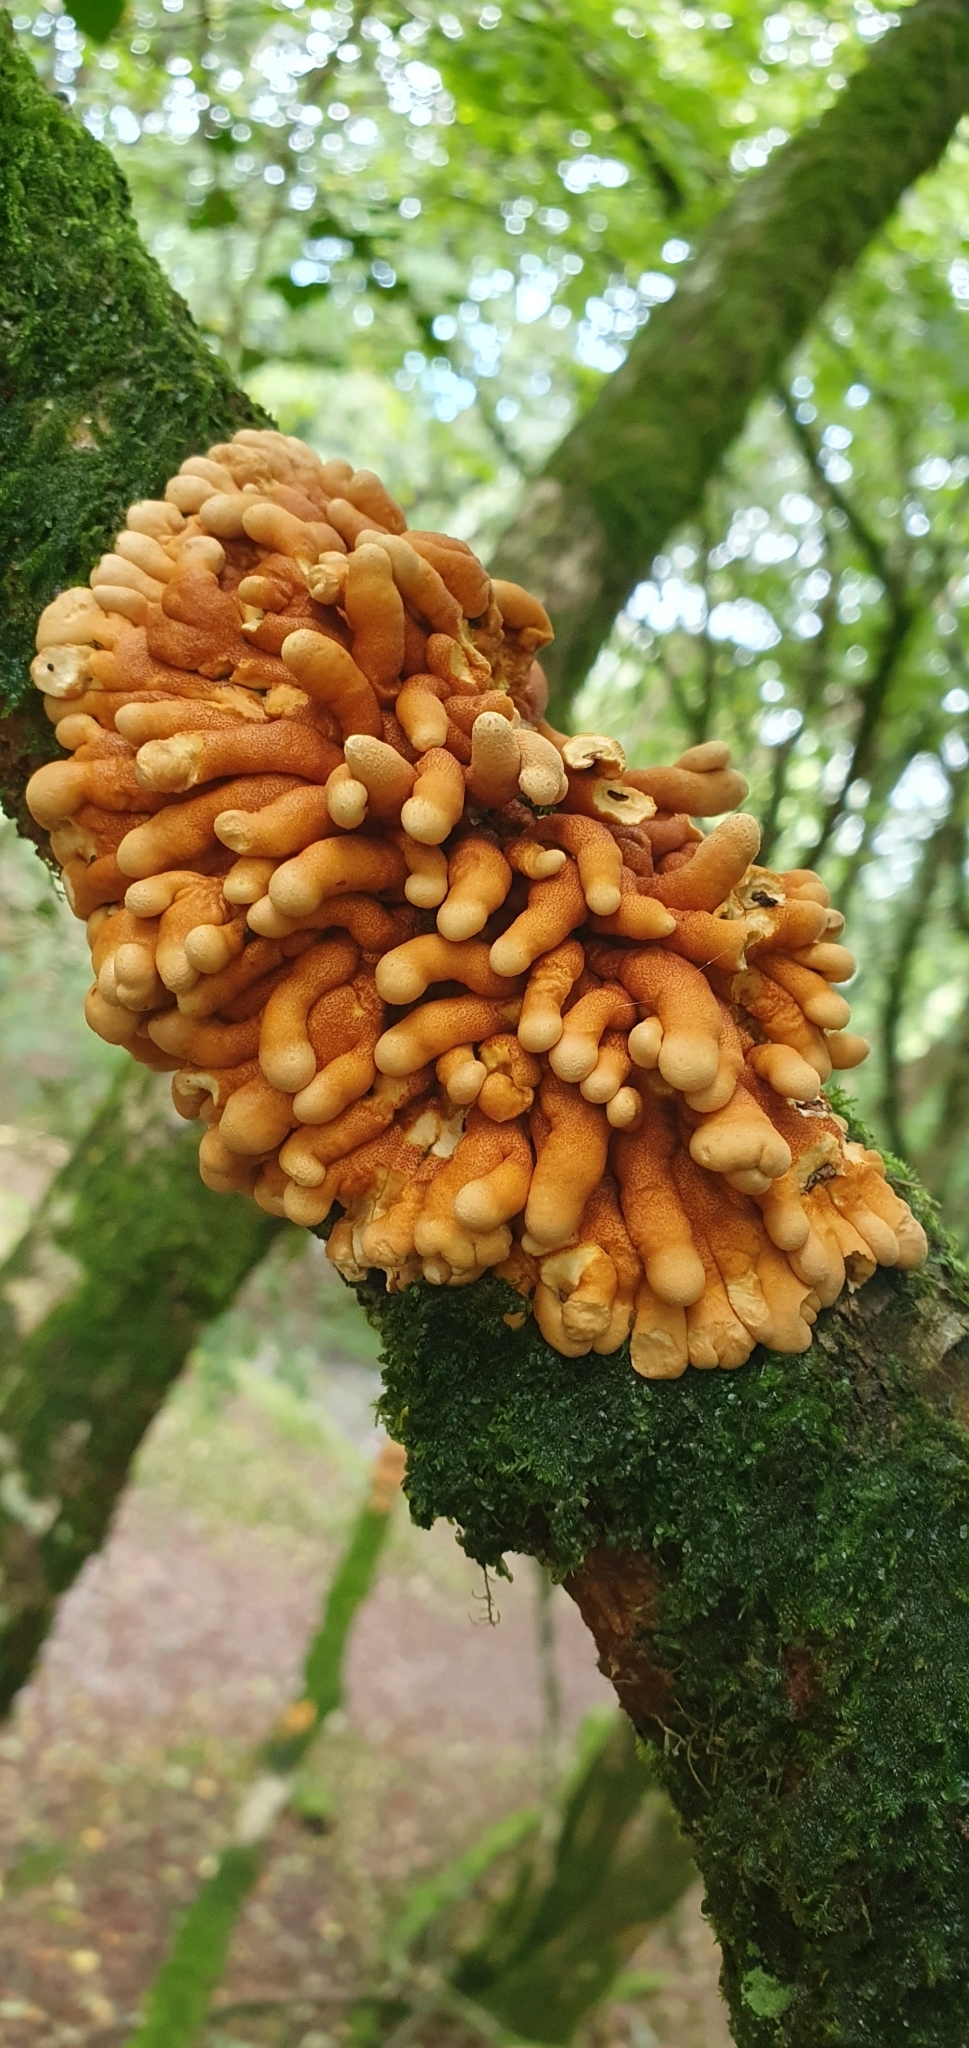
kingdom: Fungi
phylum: Ascomycota
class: Sordariomycetes
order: Hypocreales
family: Hypocreaceae
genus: Hypocreopsis
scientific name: Hypocreopsis rhododendri
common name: Hazel gloves
